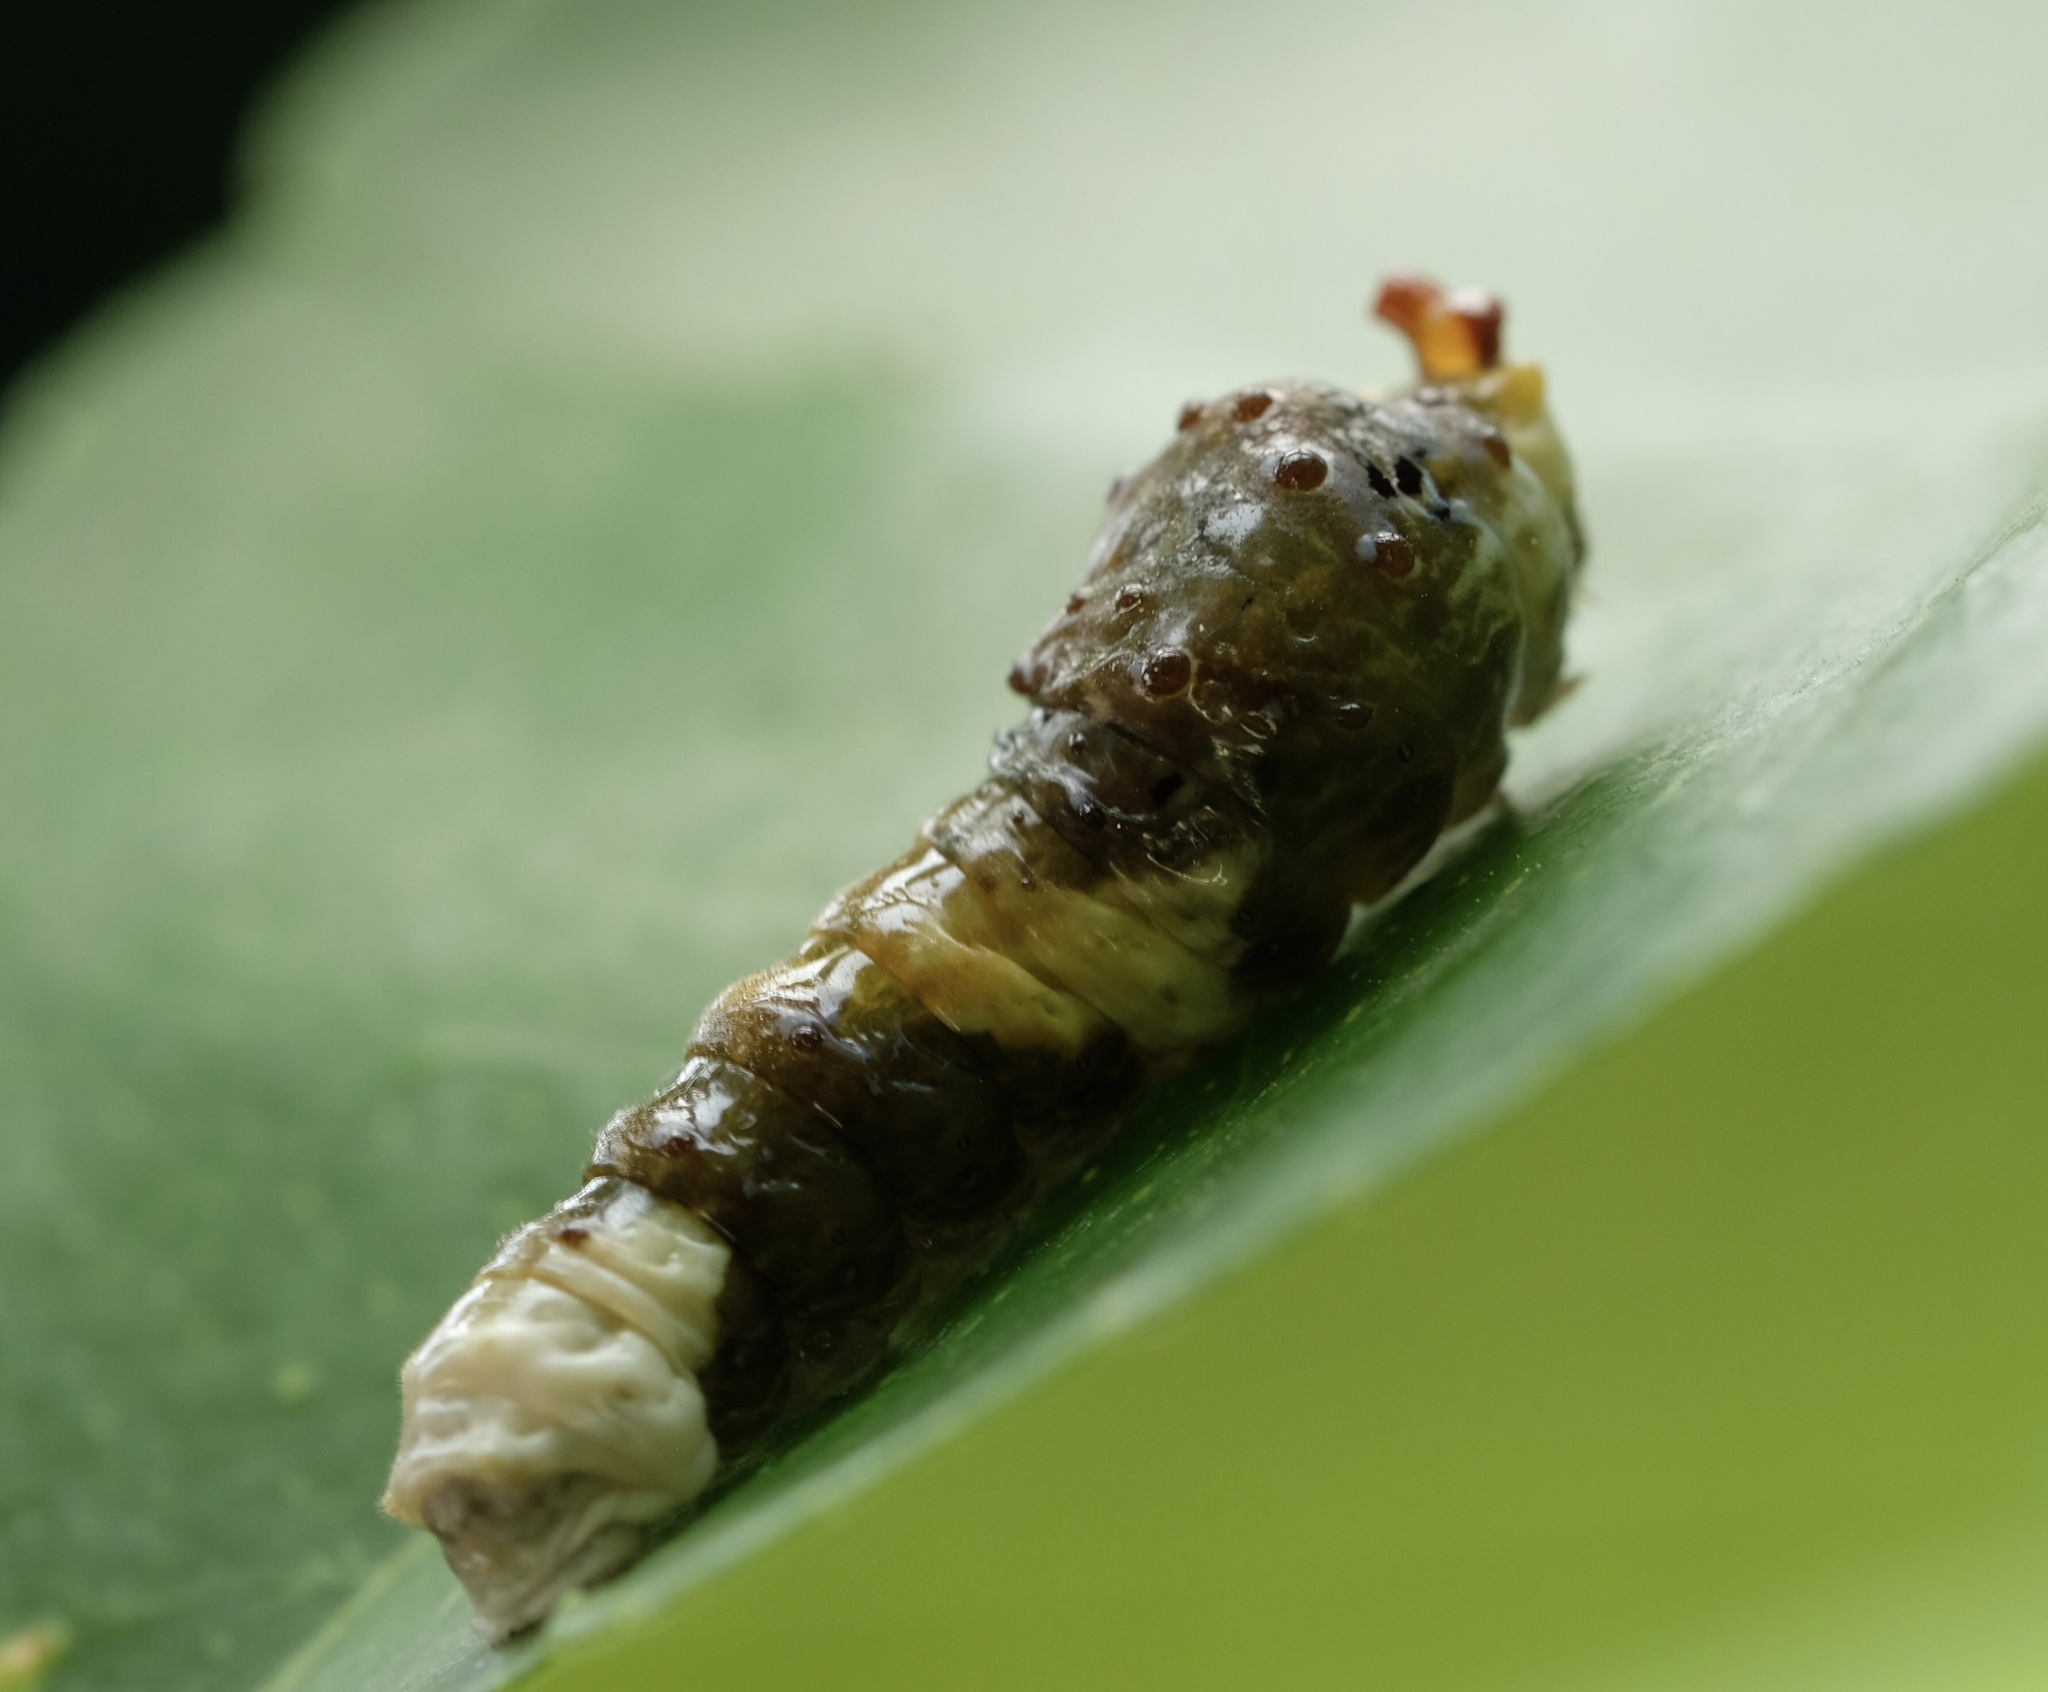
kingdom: Animalia
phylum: Arthropoda
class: Insecta
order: Lepidoptera
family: Papilionidae
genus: Papilio
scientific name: Papilio cresphontes
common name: Giant swallowtail
